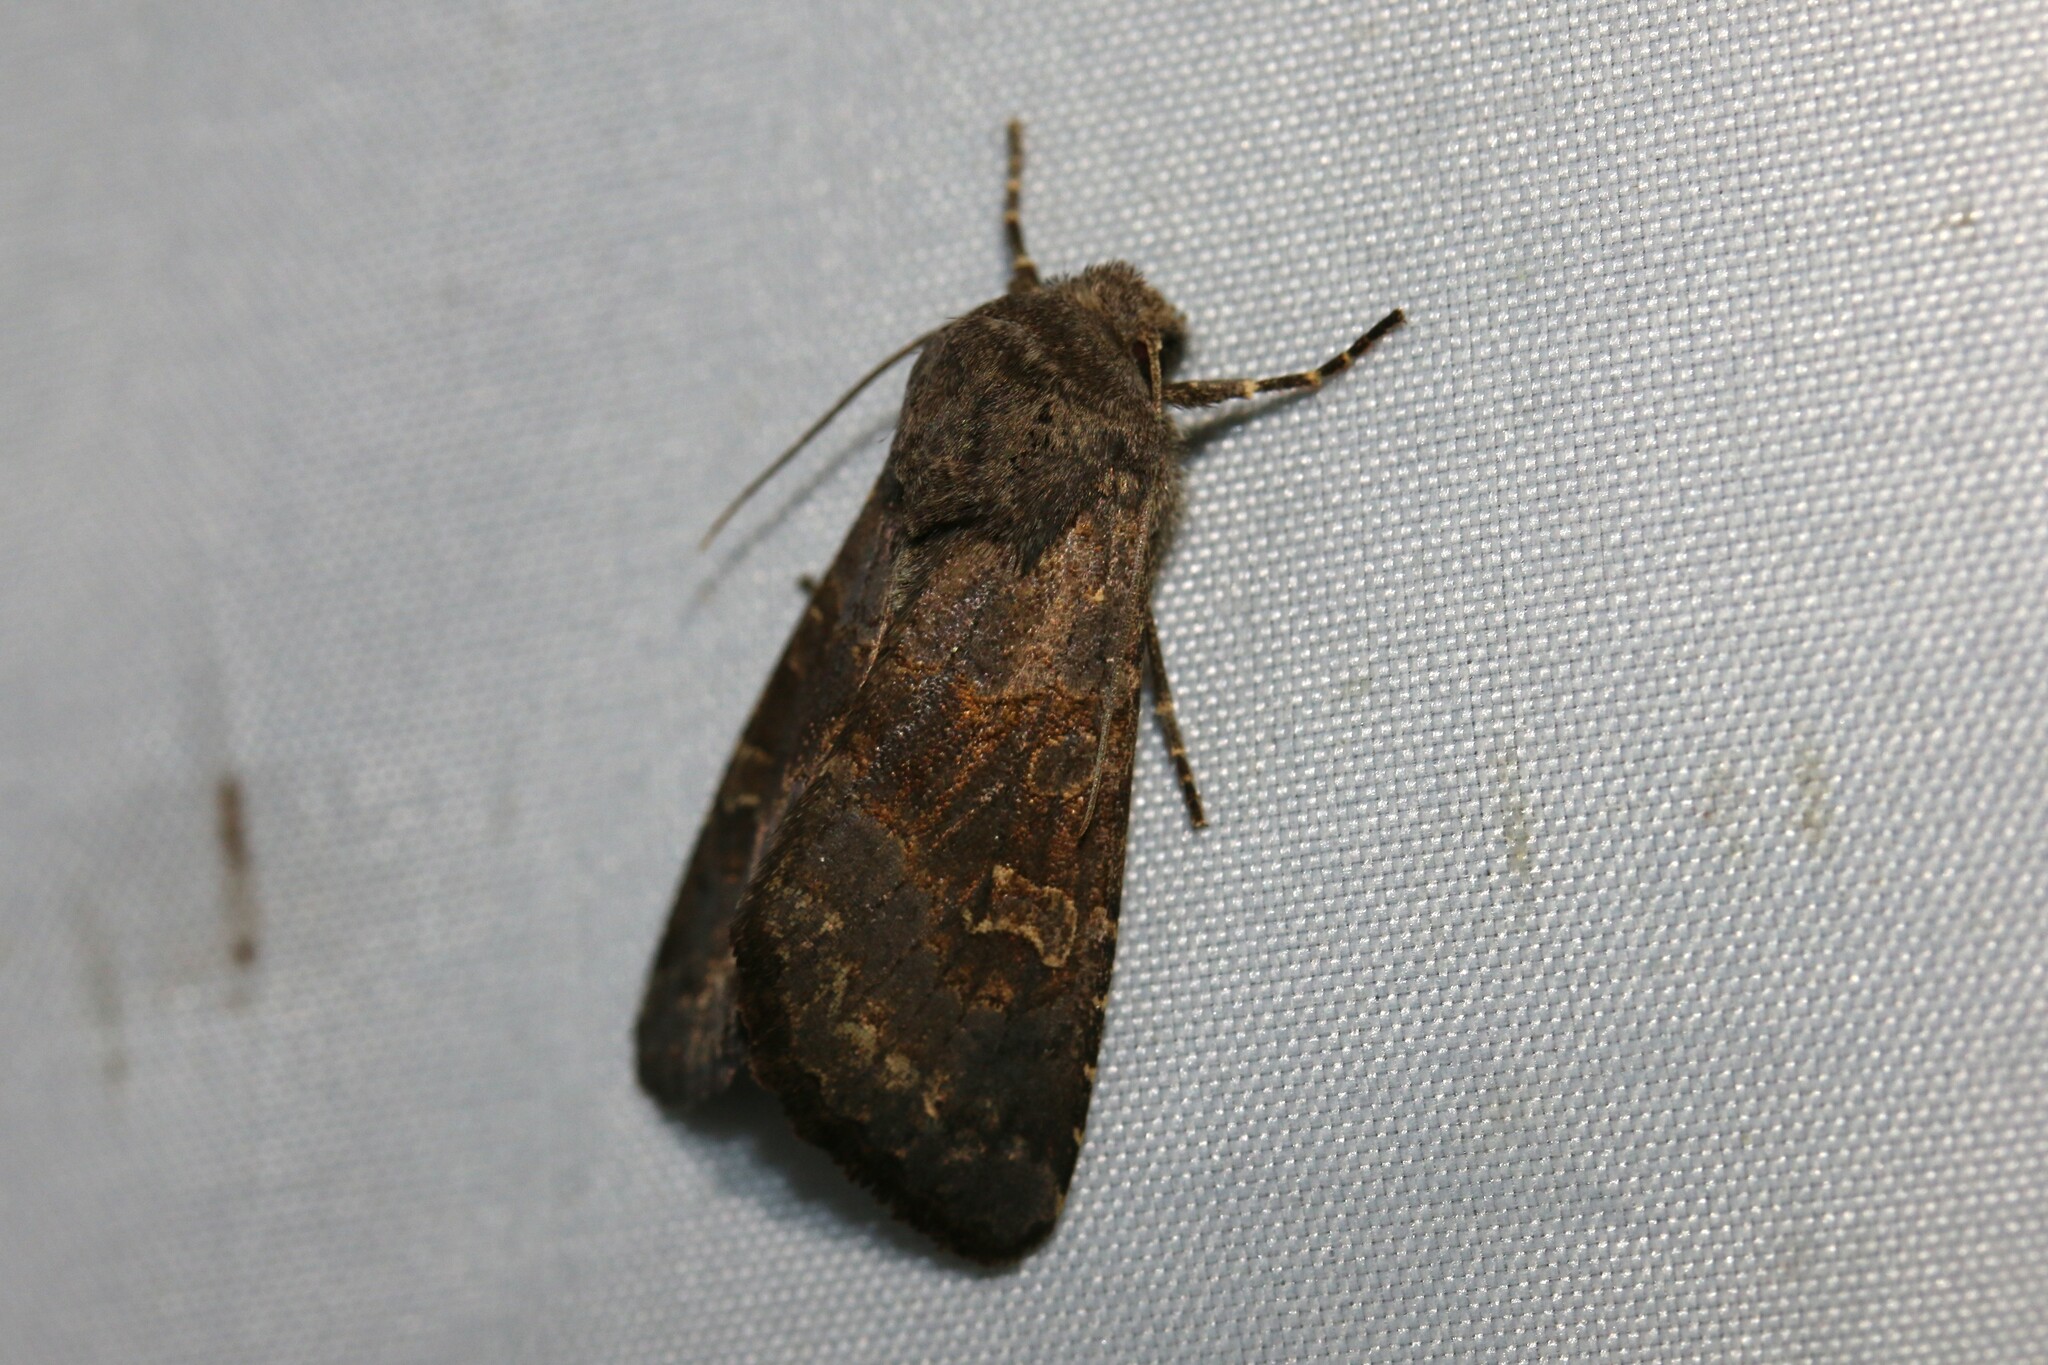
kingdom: Animalia
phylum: Arthropoda
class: Insecta
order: Lepidoptera
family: Noctuidae
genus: Aporophyla
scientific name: Aporophyla lueneburgensis
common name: Northern deep-brown dart
